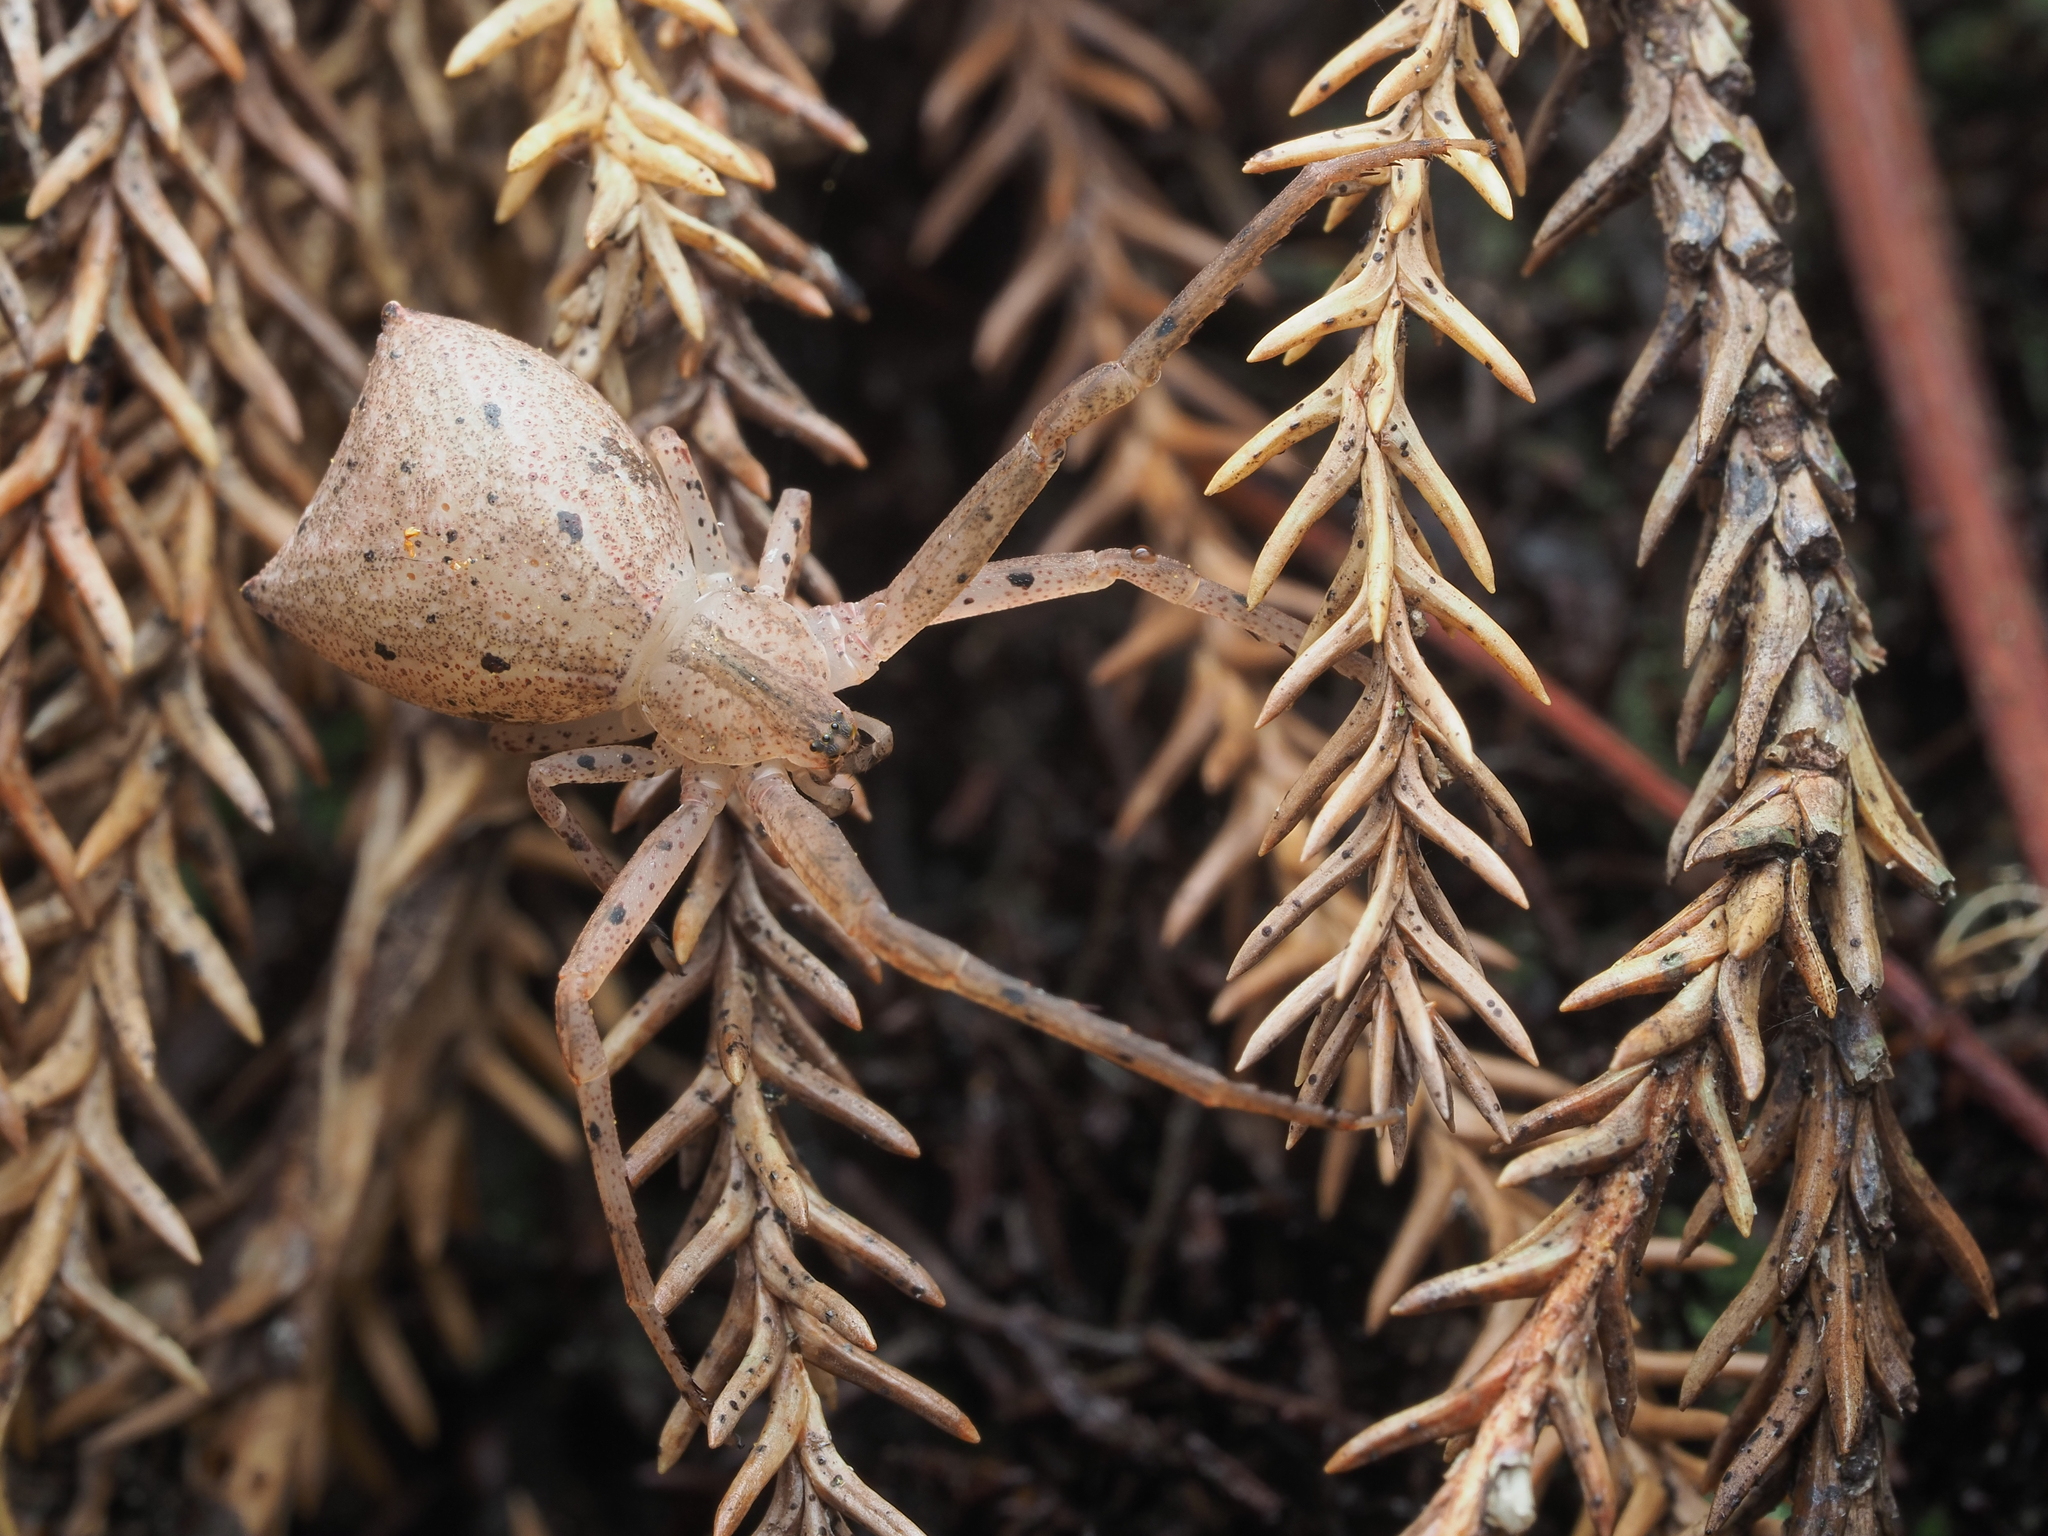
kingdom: Animalia
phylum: Arthropoda
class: Arachnida
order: Araneae
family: Thomisidae
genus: Sidymella
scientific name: Sidymella longipes
